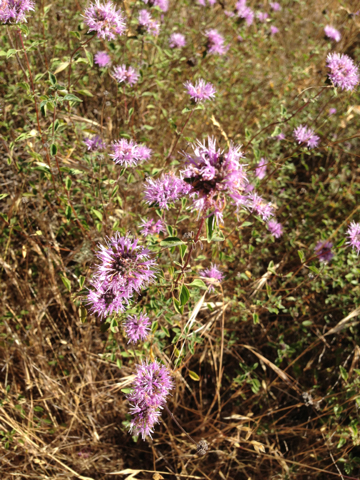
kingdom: Plantae
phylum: Tracheophyta
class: Magnoliopsida
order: Lamiales
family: Lamiaceae
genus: Monardella
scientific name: Monardella odoratissima
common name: Pacific monardella
